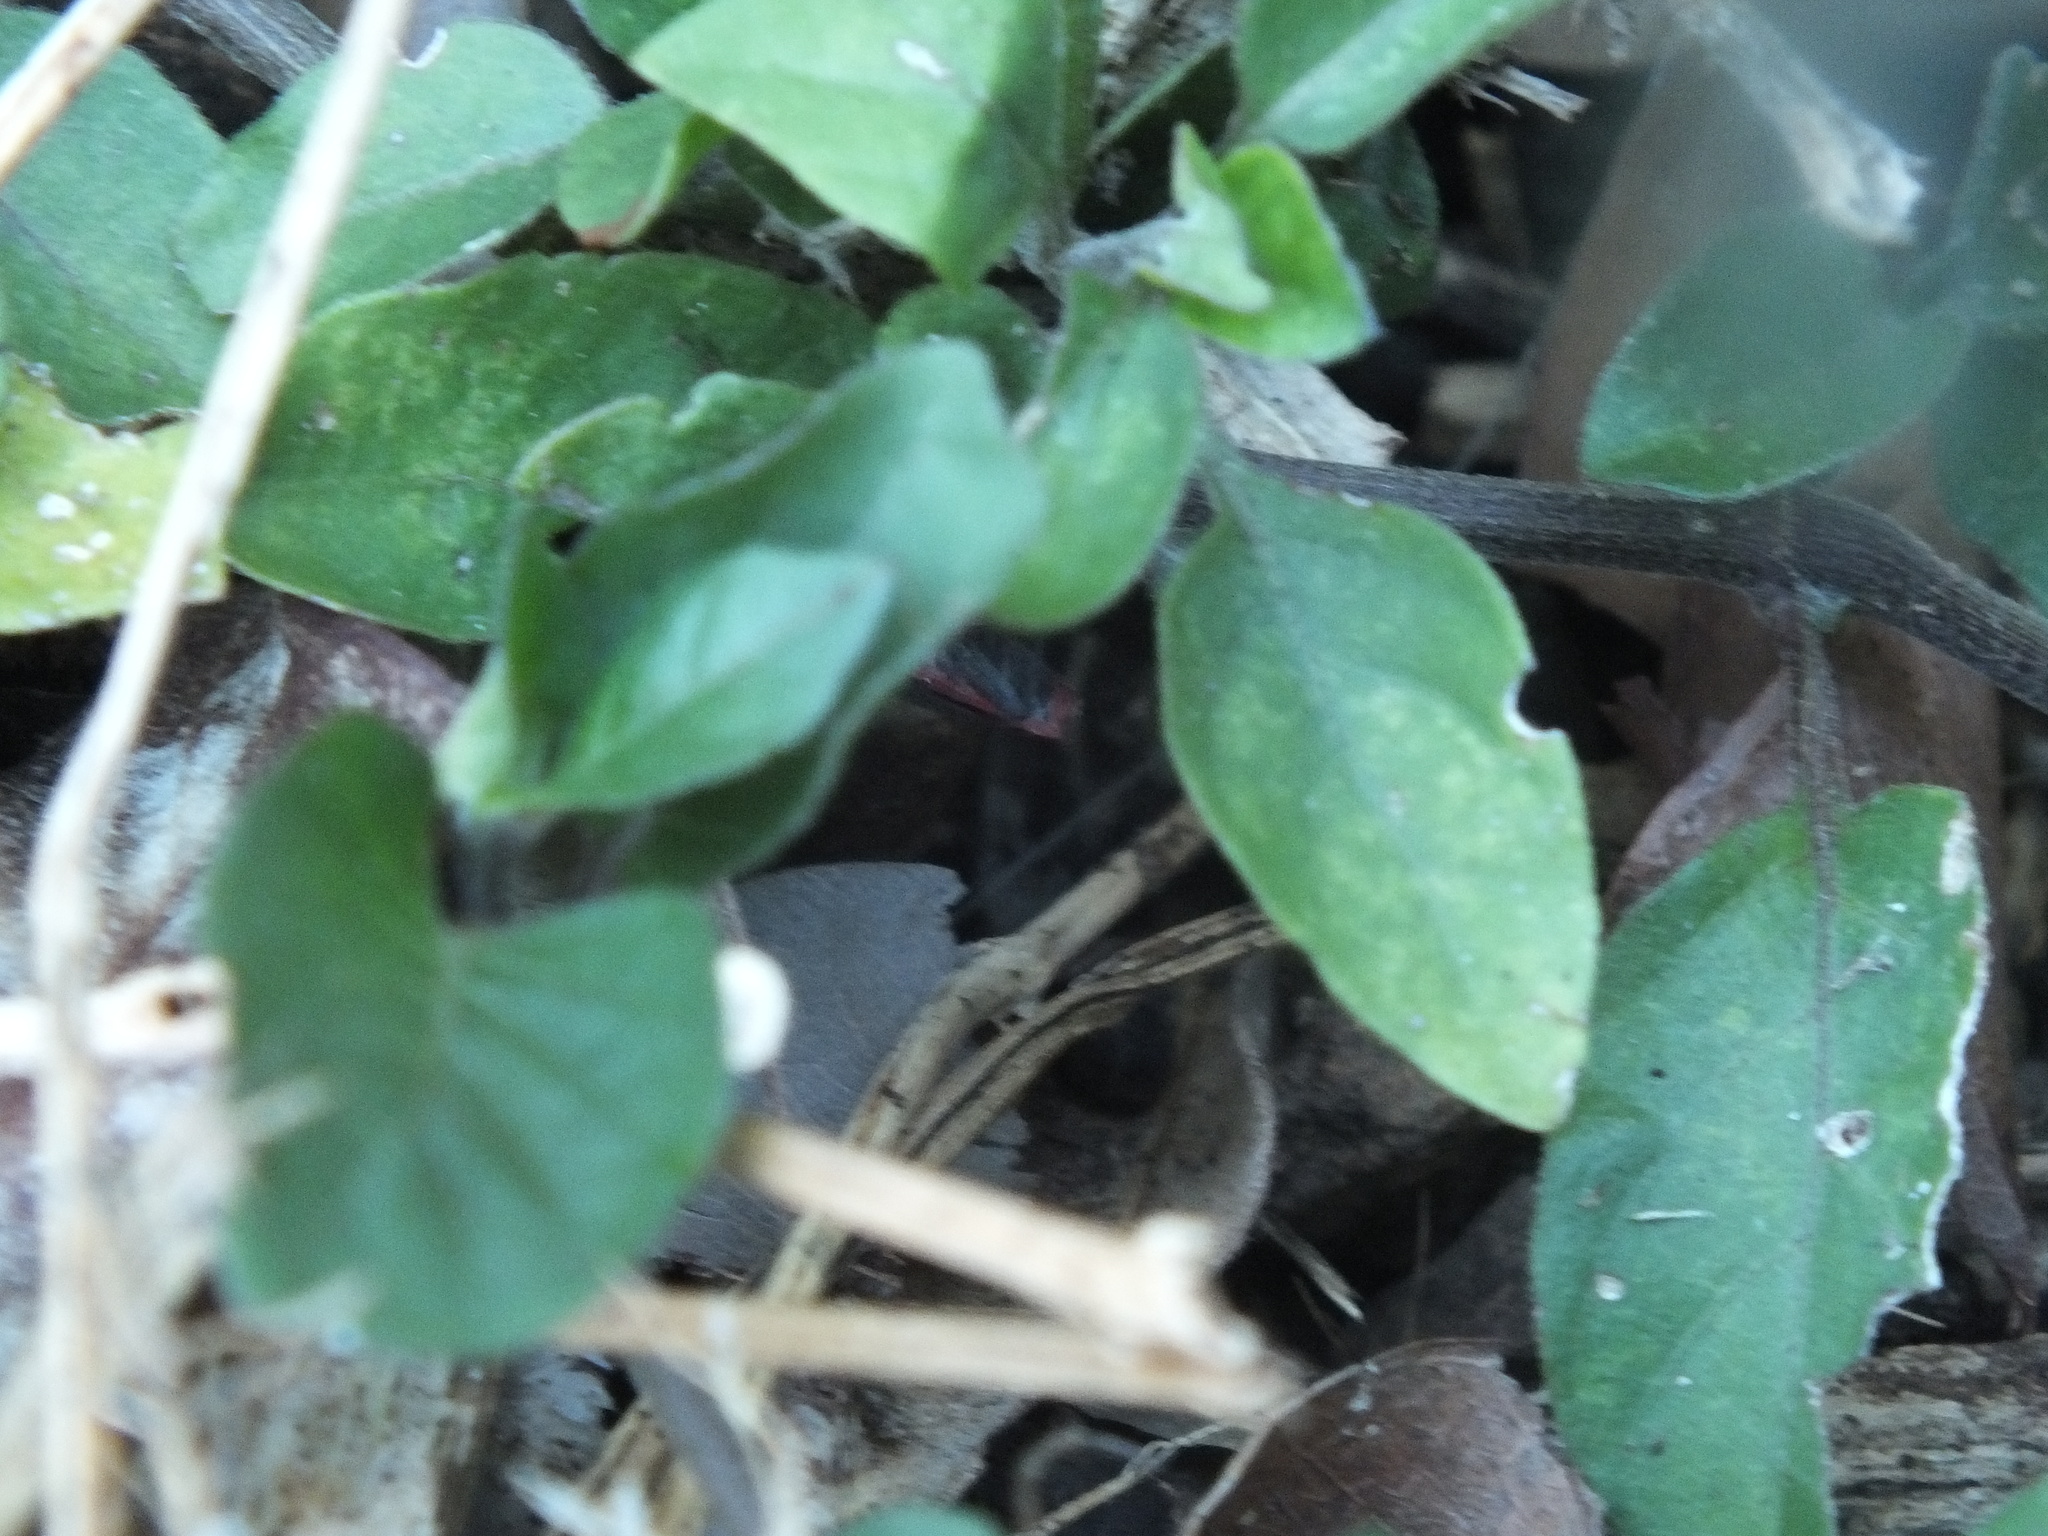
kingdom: Animalia
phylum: Arthropoda
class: Insecta
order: Hemiptera
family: Rhopalidae
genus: Jadera
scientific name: Jadera haematoloma
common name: Red-shouldered bug
